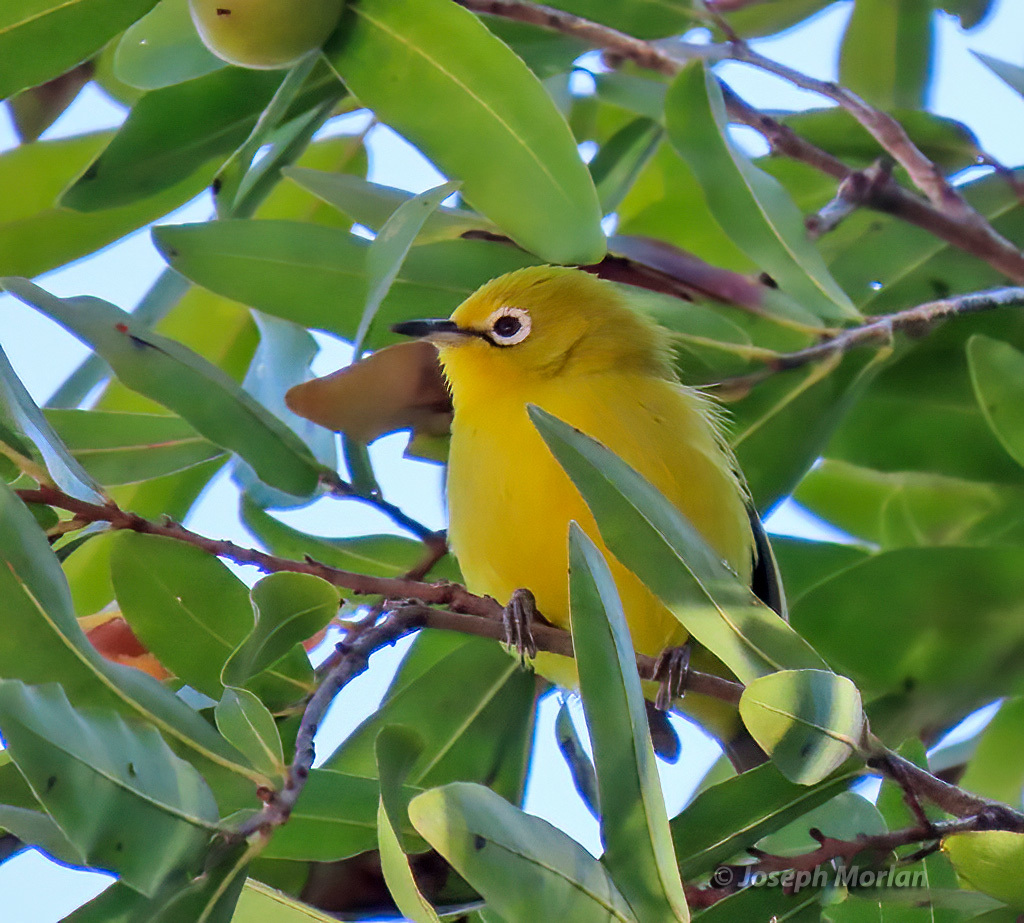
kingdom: Animalia
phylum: Chordata
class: Aves
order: Passeriformes
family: Zosteropidae
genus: Zosterops
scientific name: Zosterops anderssoni
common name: Southern yellow white-eye
